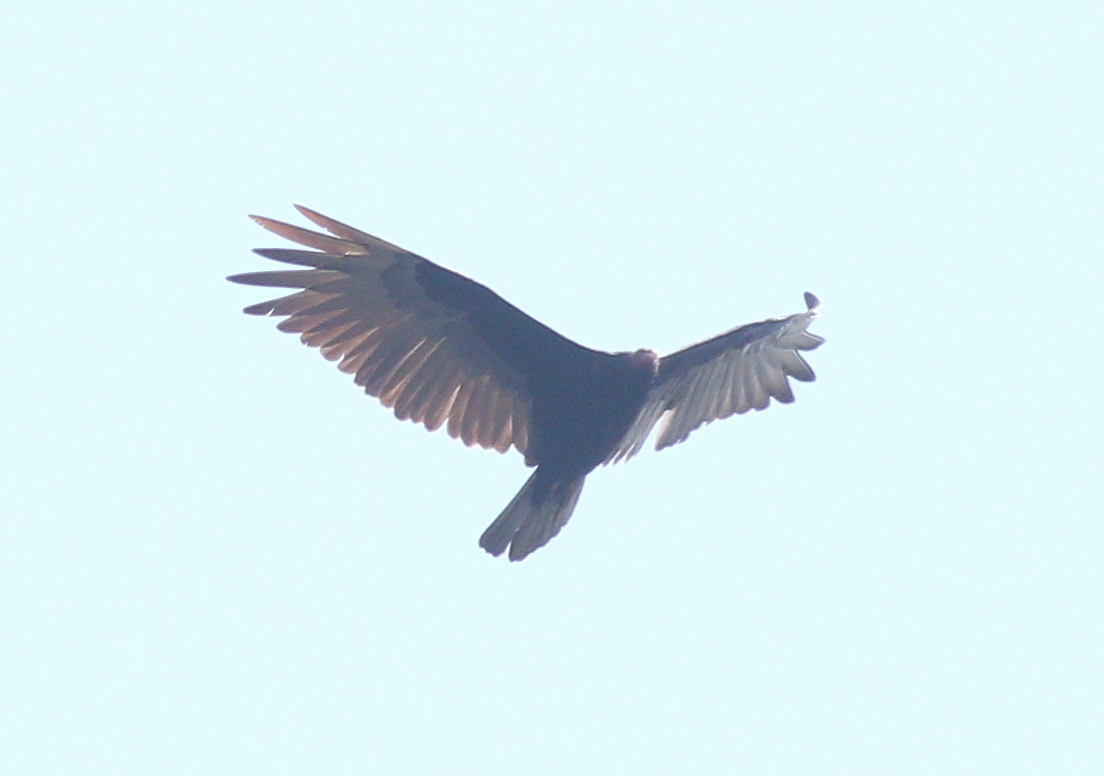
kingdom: Animalia
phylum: Chordata
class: Aves
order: Accipitriformes
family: Cathartidae
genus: Cathartes
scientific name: Cathartes aura
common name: Turkey vulture
